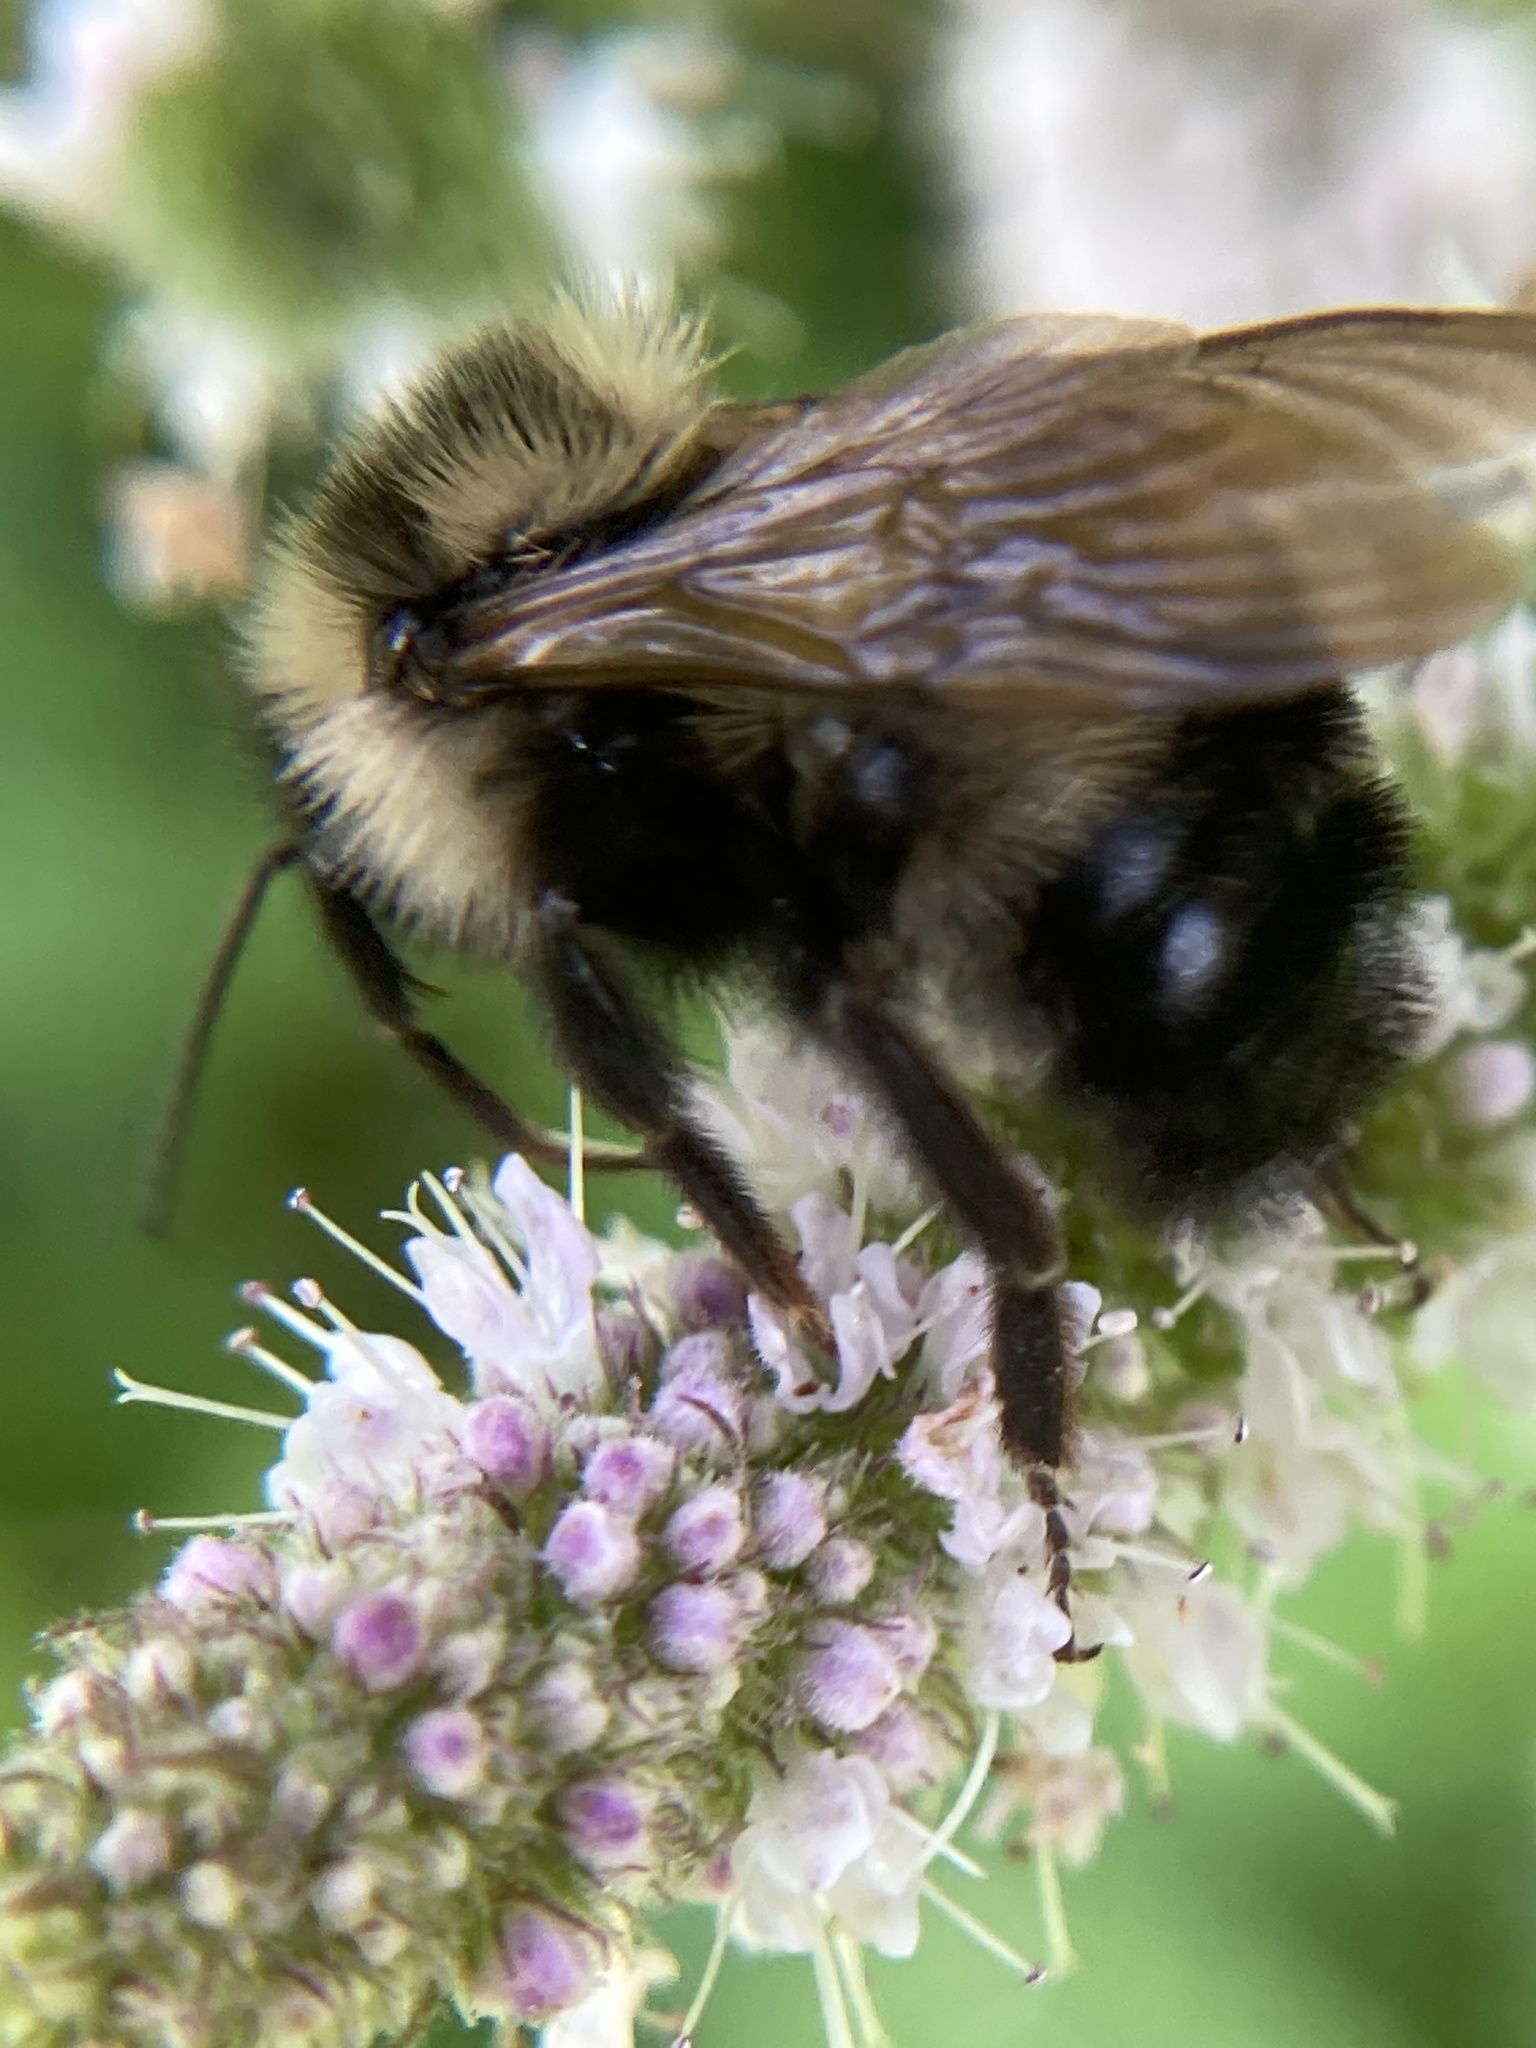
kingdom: Animalia
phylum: Arthropoda
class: Insecta
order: Hymenoptera
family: Apidae
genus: Bombus
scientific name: Bombus citrinus
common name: Lemon cuckoo bumble bee
